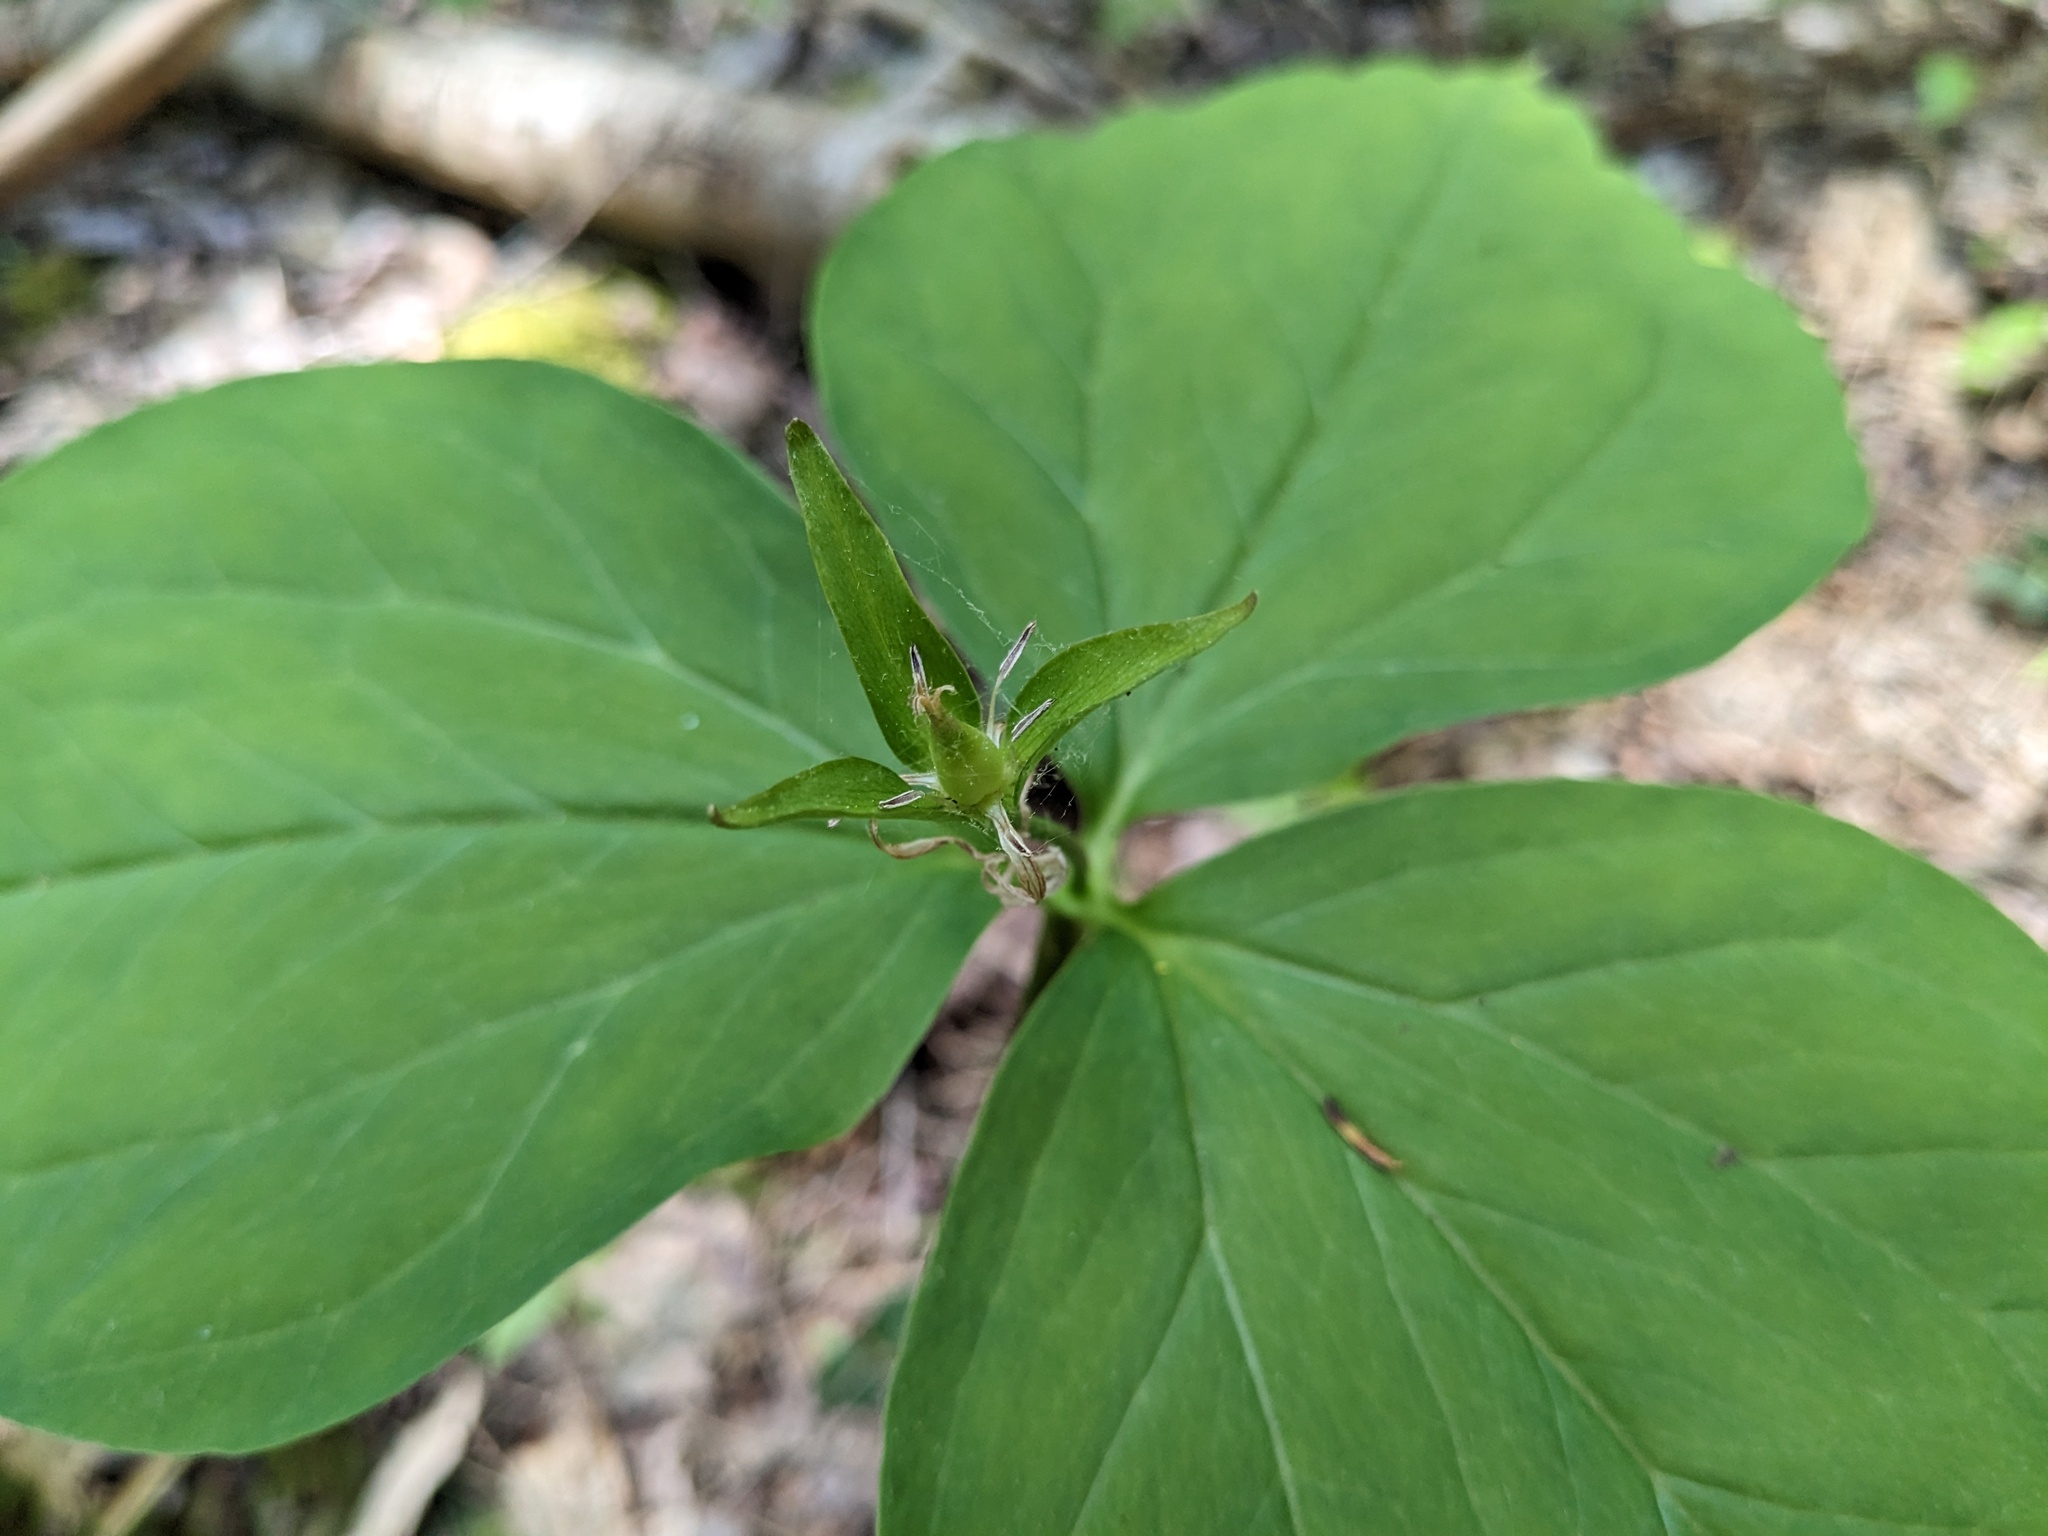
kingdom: Plantae
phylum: Tracheophyta
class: Liliopsida
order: Liliales
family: Melanthiaceae
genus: Trillium
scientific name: Trillium undulatum
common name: Paint trillium
